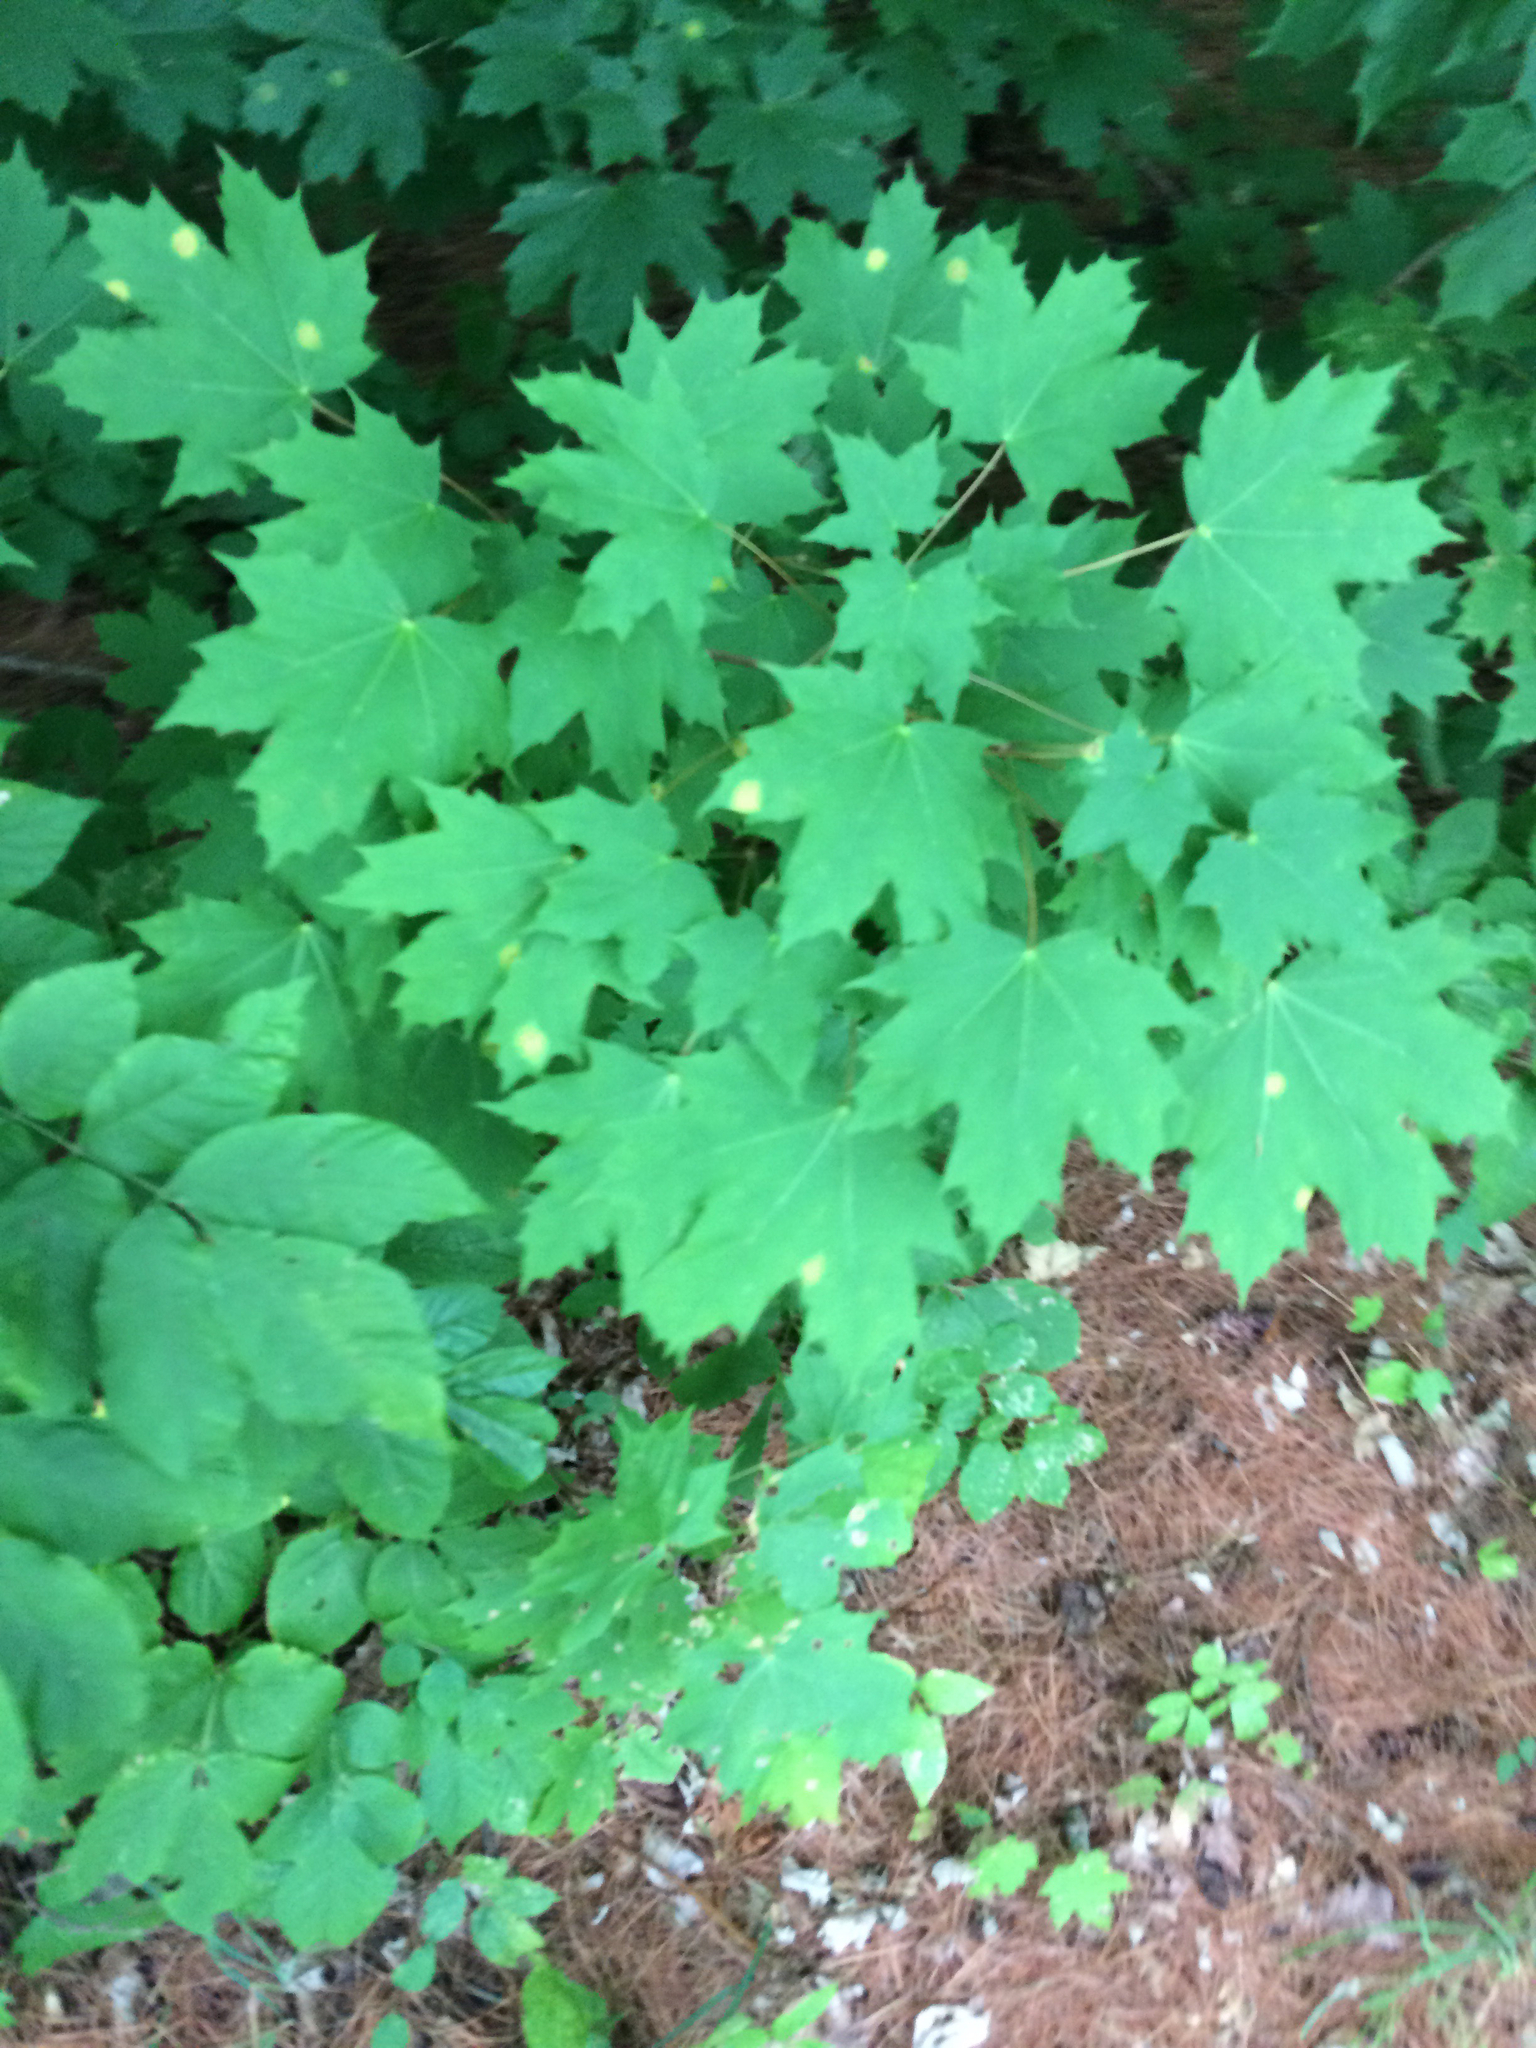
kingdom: Plantae
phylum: Tracheophyta
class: Magnoliopsida
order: Sapindales
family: Sapindaceae
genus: Acer
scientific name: Acer platanoides
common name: Norway maple
